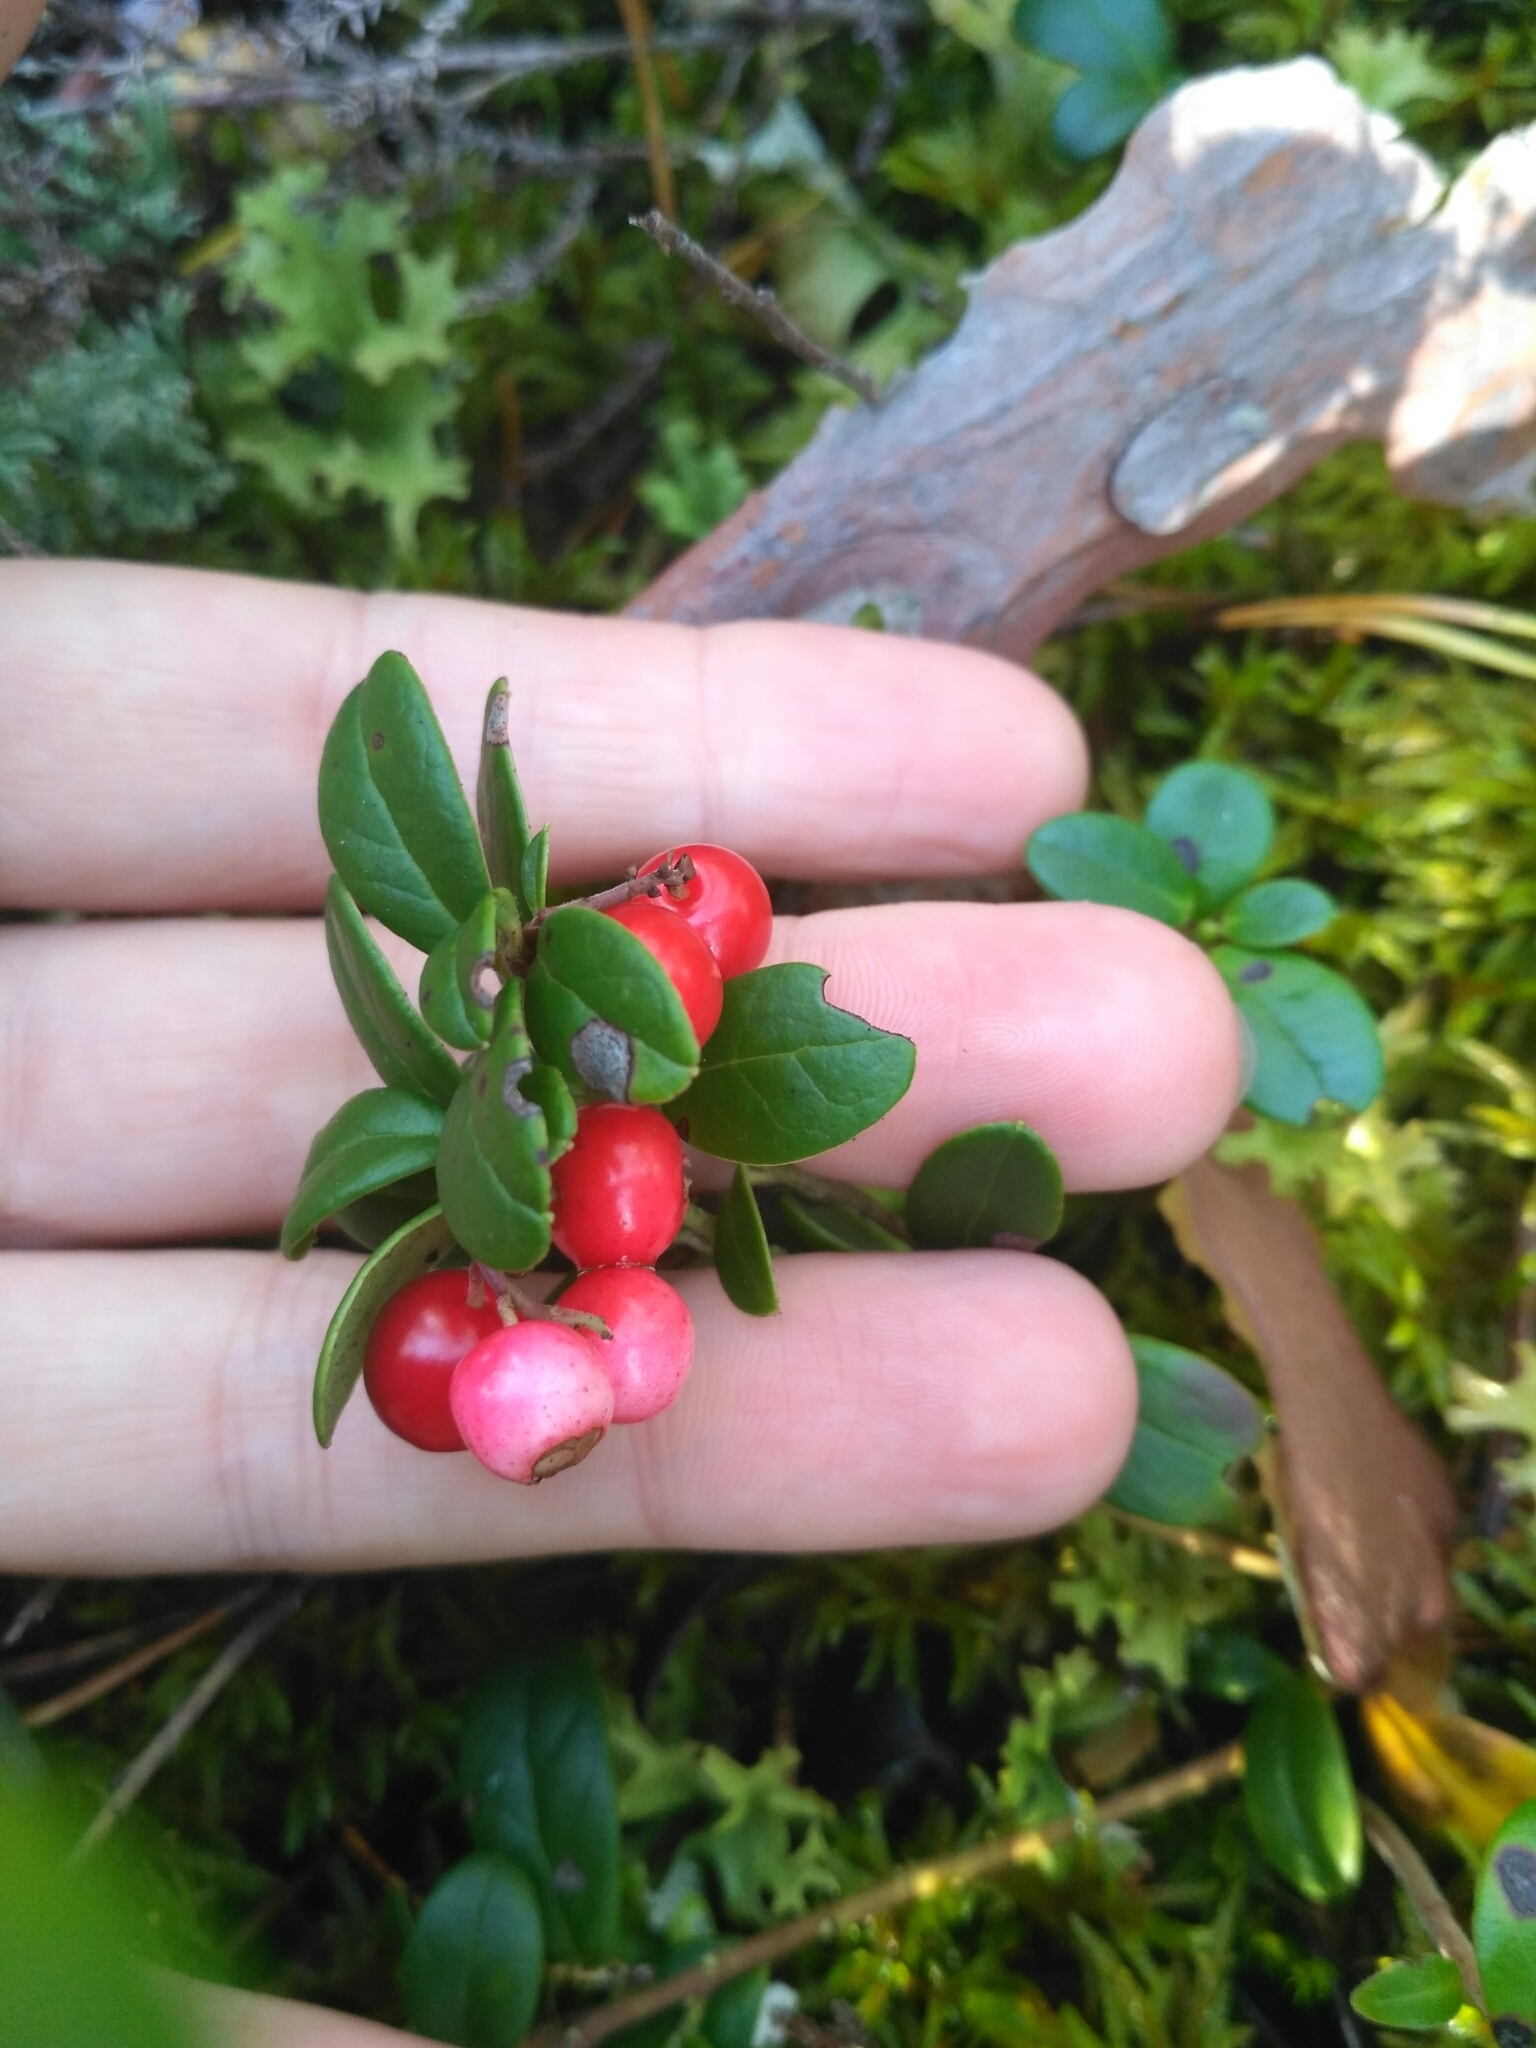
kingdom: Plantae
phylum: Tracheophyta
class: Magnoliopsida
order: Ericales
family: Ericaceae
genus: Vaccinium
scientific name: Vaccinium vitis-idaea
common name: Cowberry
